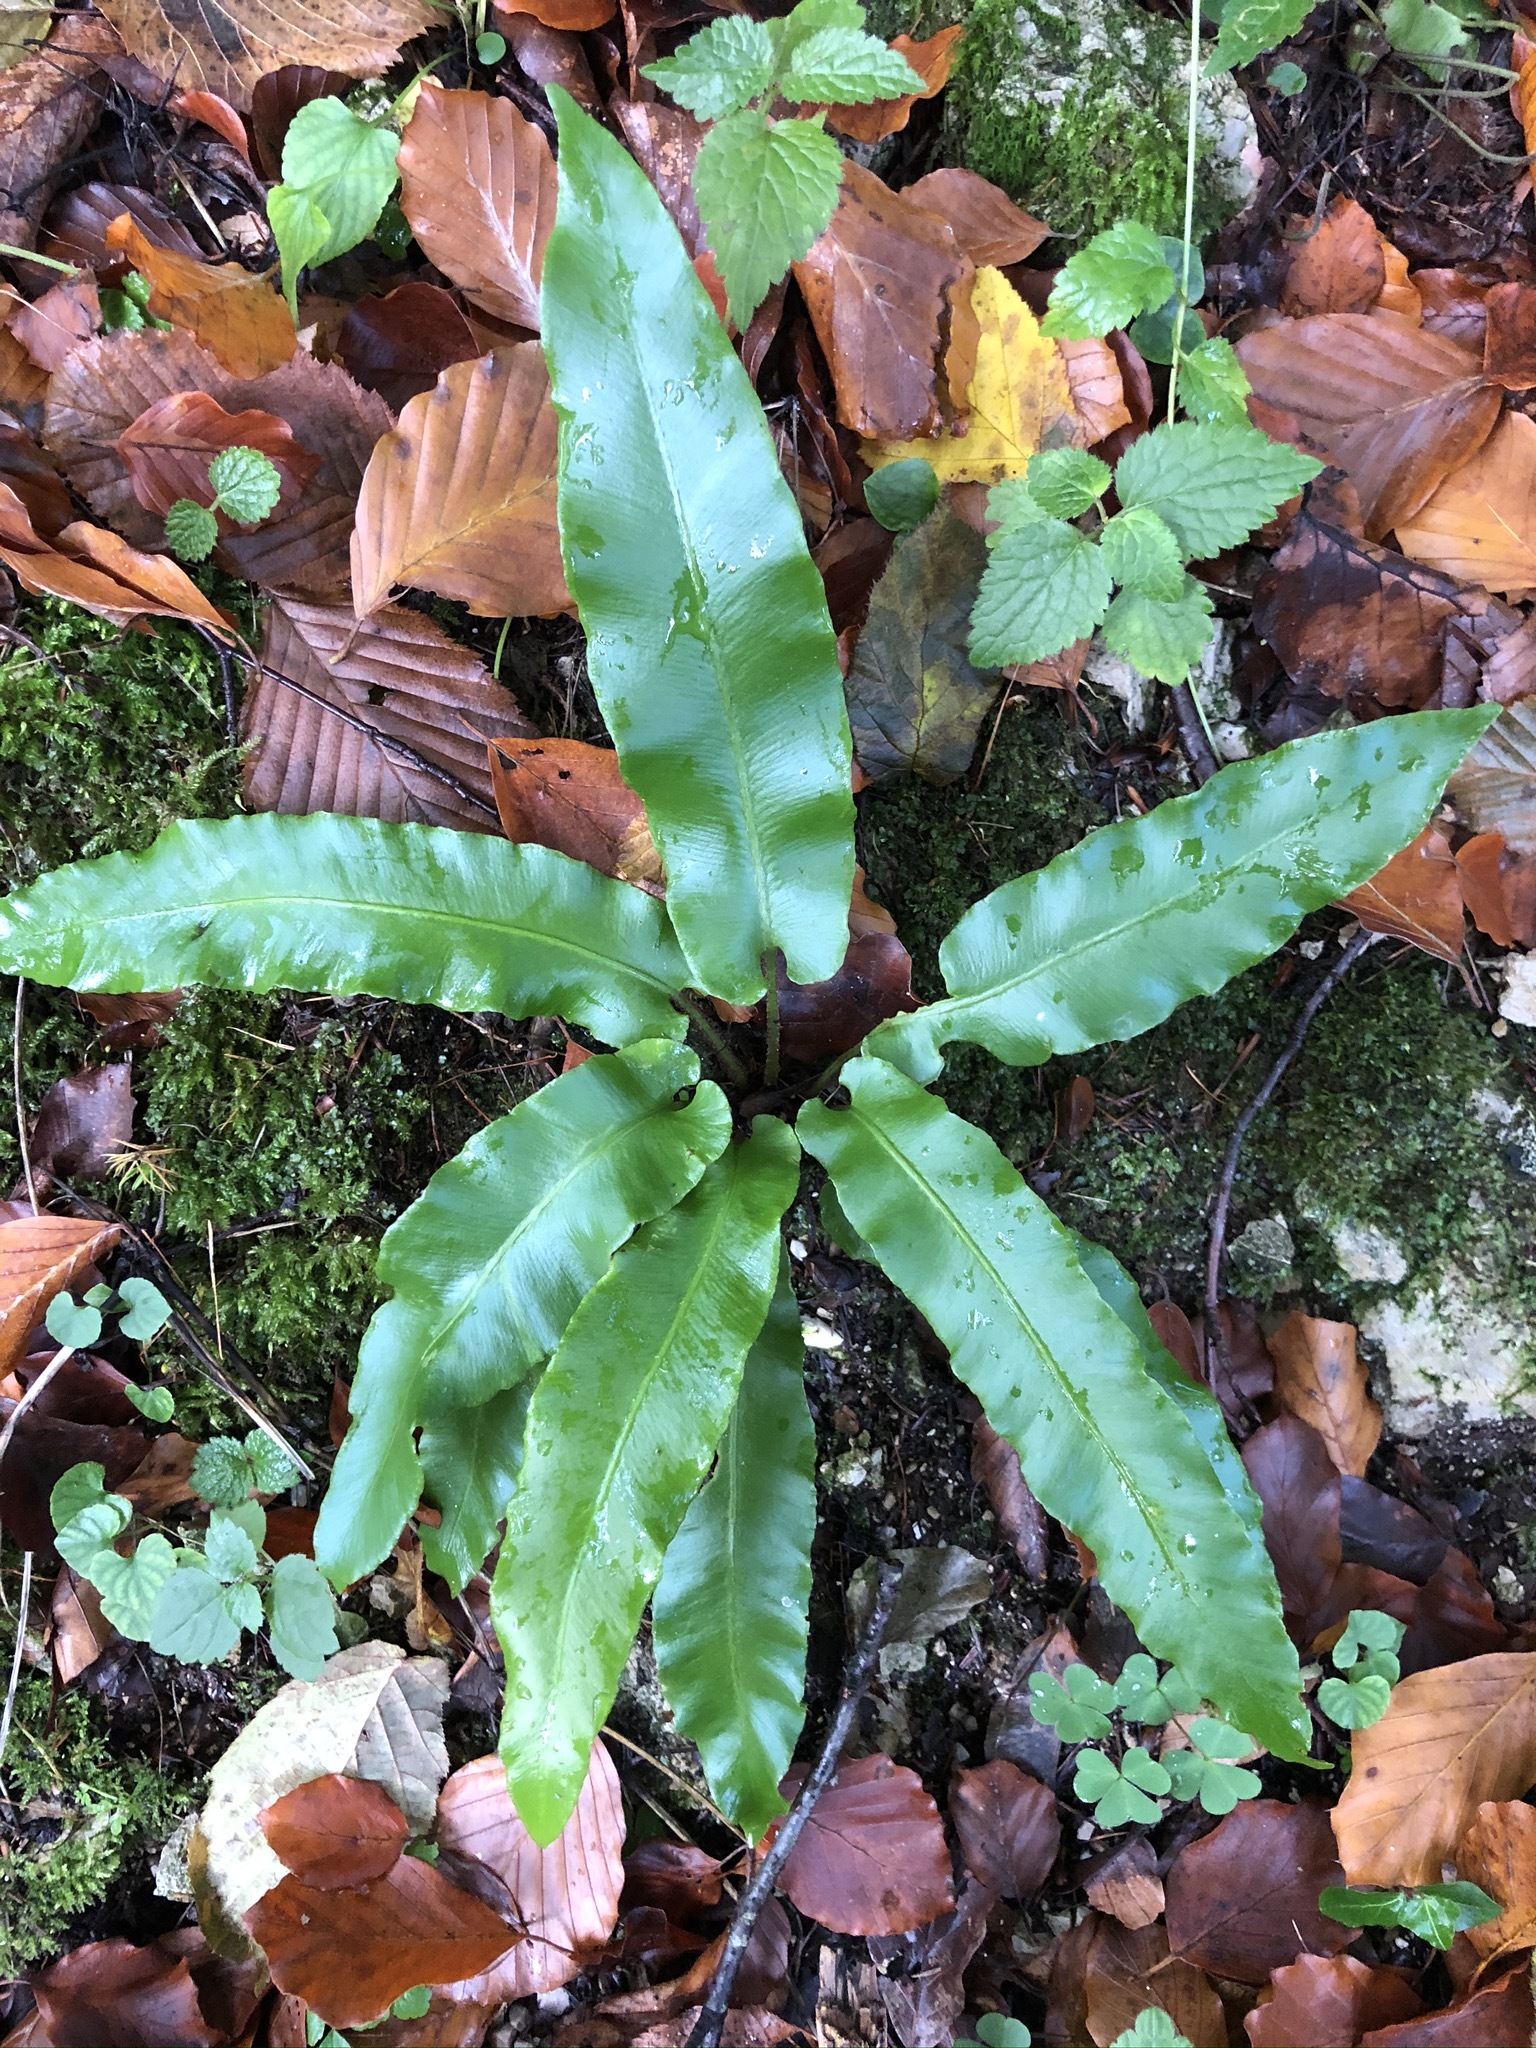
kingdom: Plantae
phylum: Tracheophyta
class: Polypodiopsida
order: Polypodiales
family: Aspleniaceae
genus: Asplenium
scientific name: Asplenium scolopendrium
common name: Hart's-tongue fern
